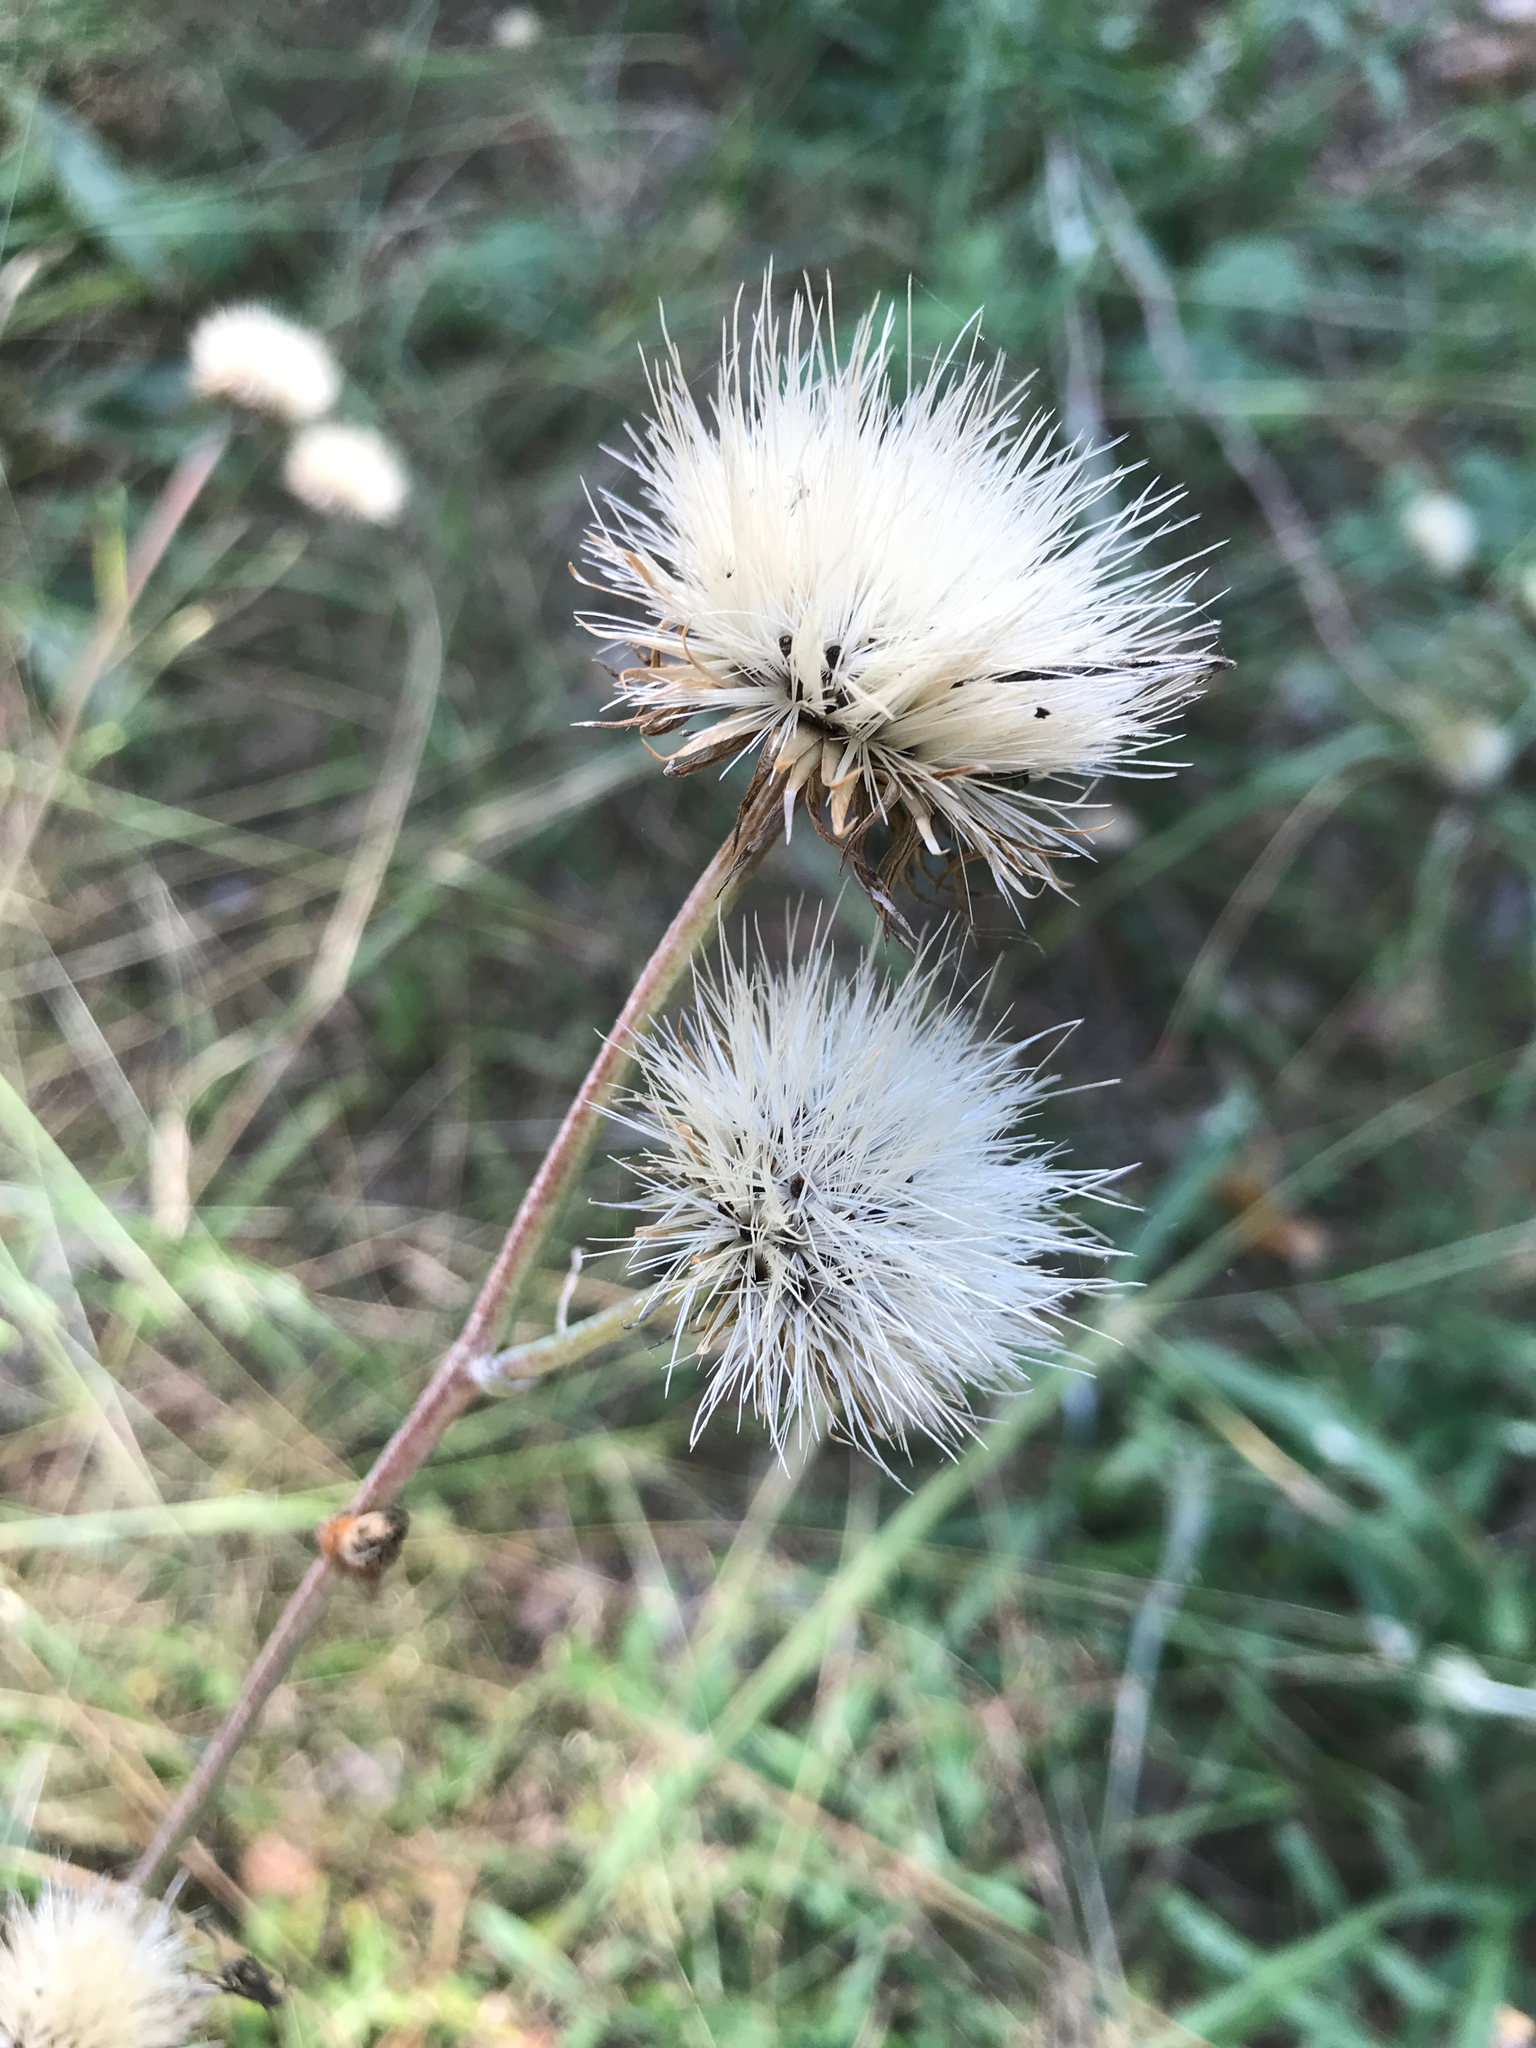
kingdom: Plantae
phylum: Tracheophyta
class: Magnoliopsida
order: Asterales
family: Asteraceae
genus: Jurinea
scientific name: Jurinea cyanoides
